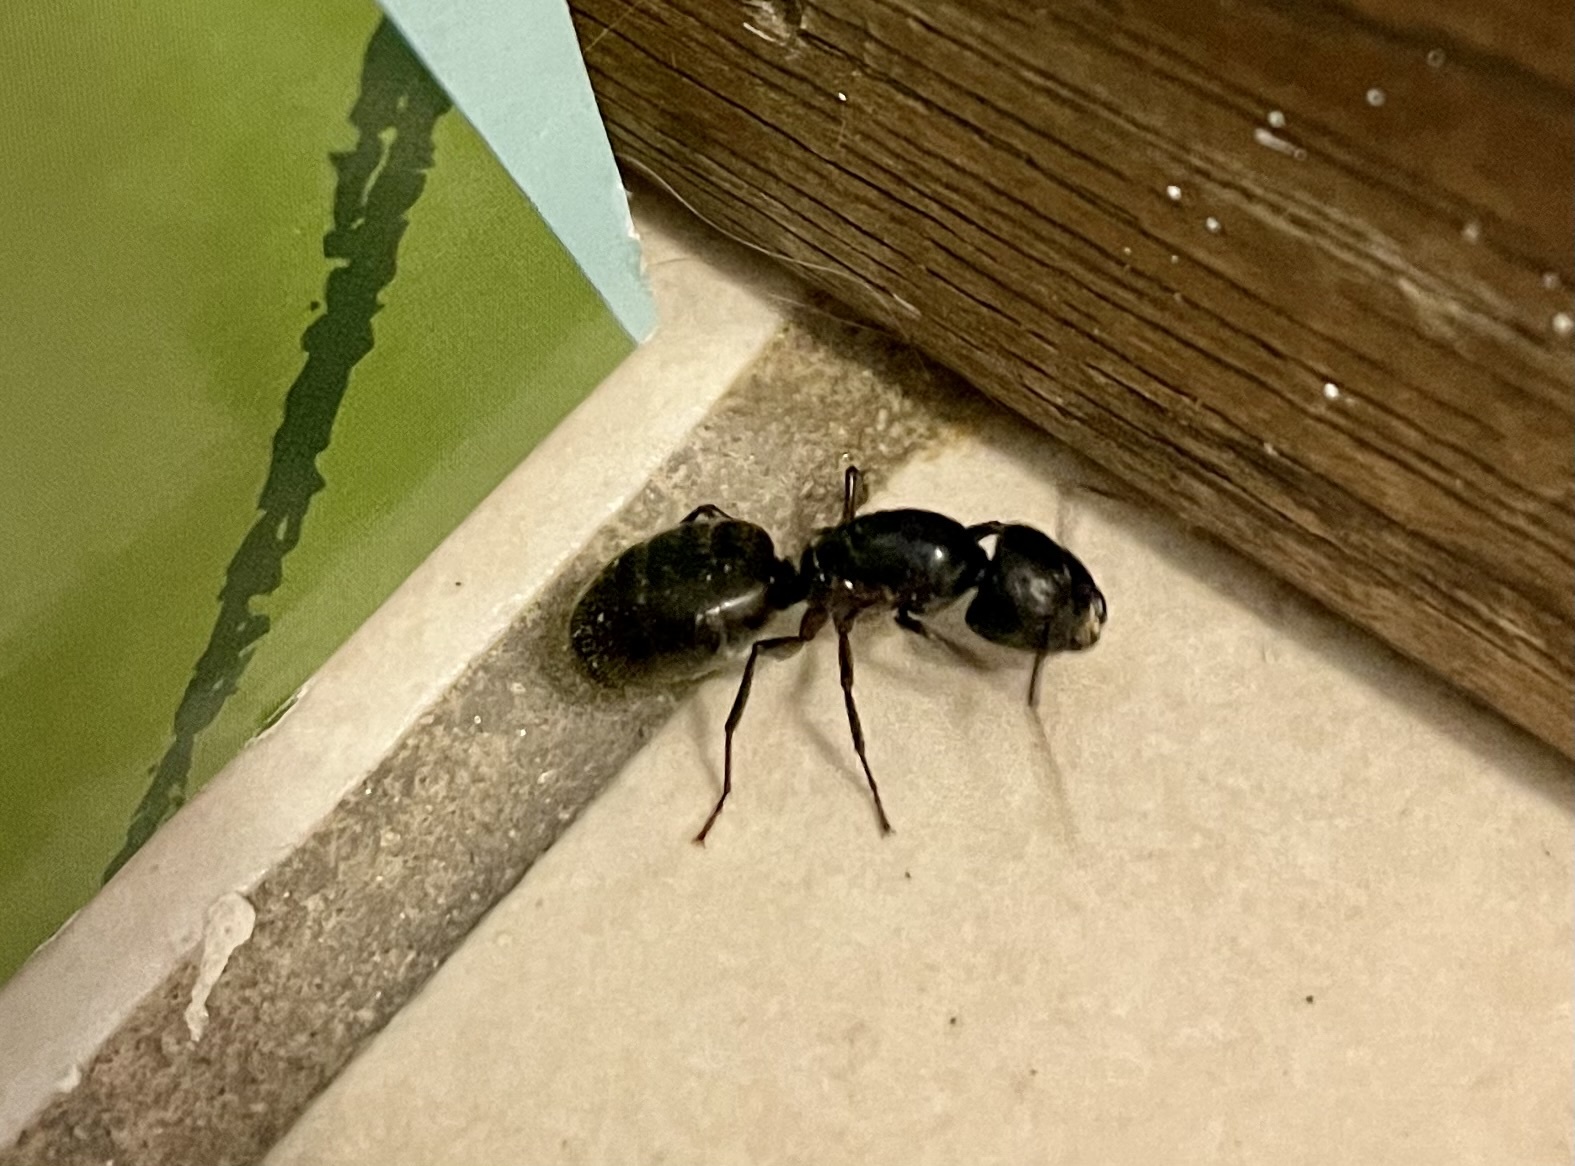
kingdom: Animalia
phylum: Arthropoda
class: Insecta
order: Hymenoptera
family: Formicidae
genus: Camponotus
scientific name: Camponotus pennsylvanicus
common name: Black carpenter ant
